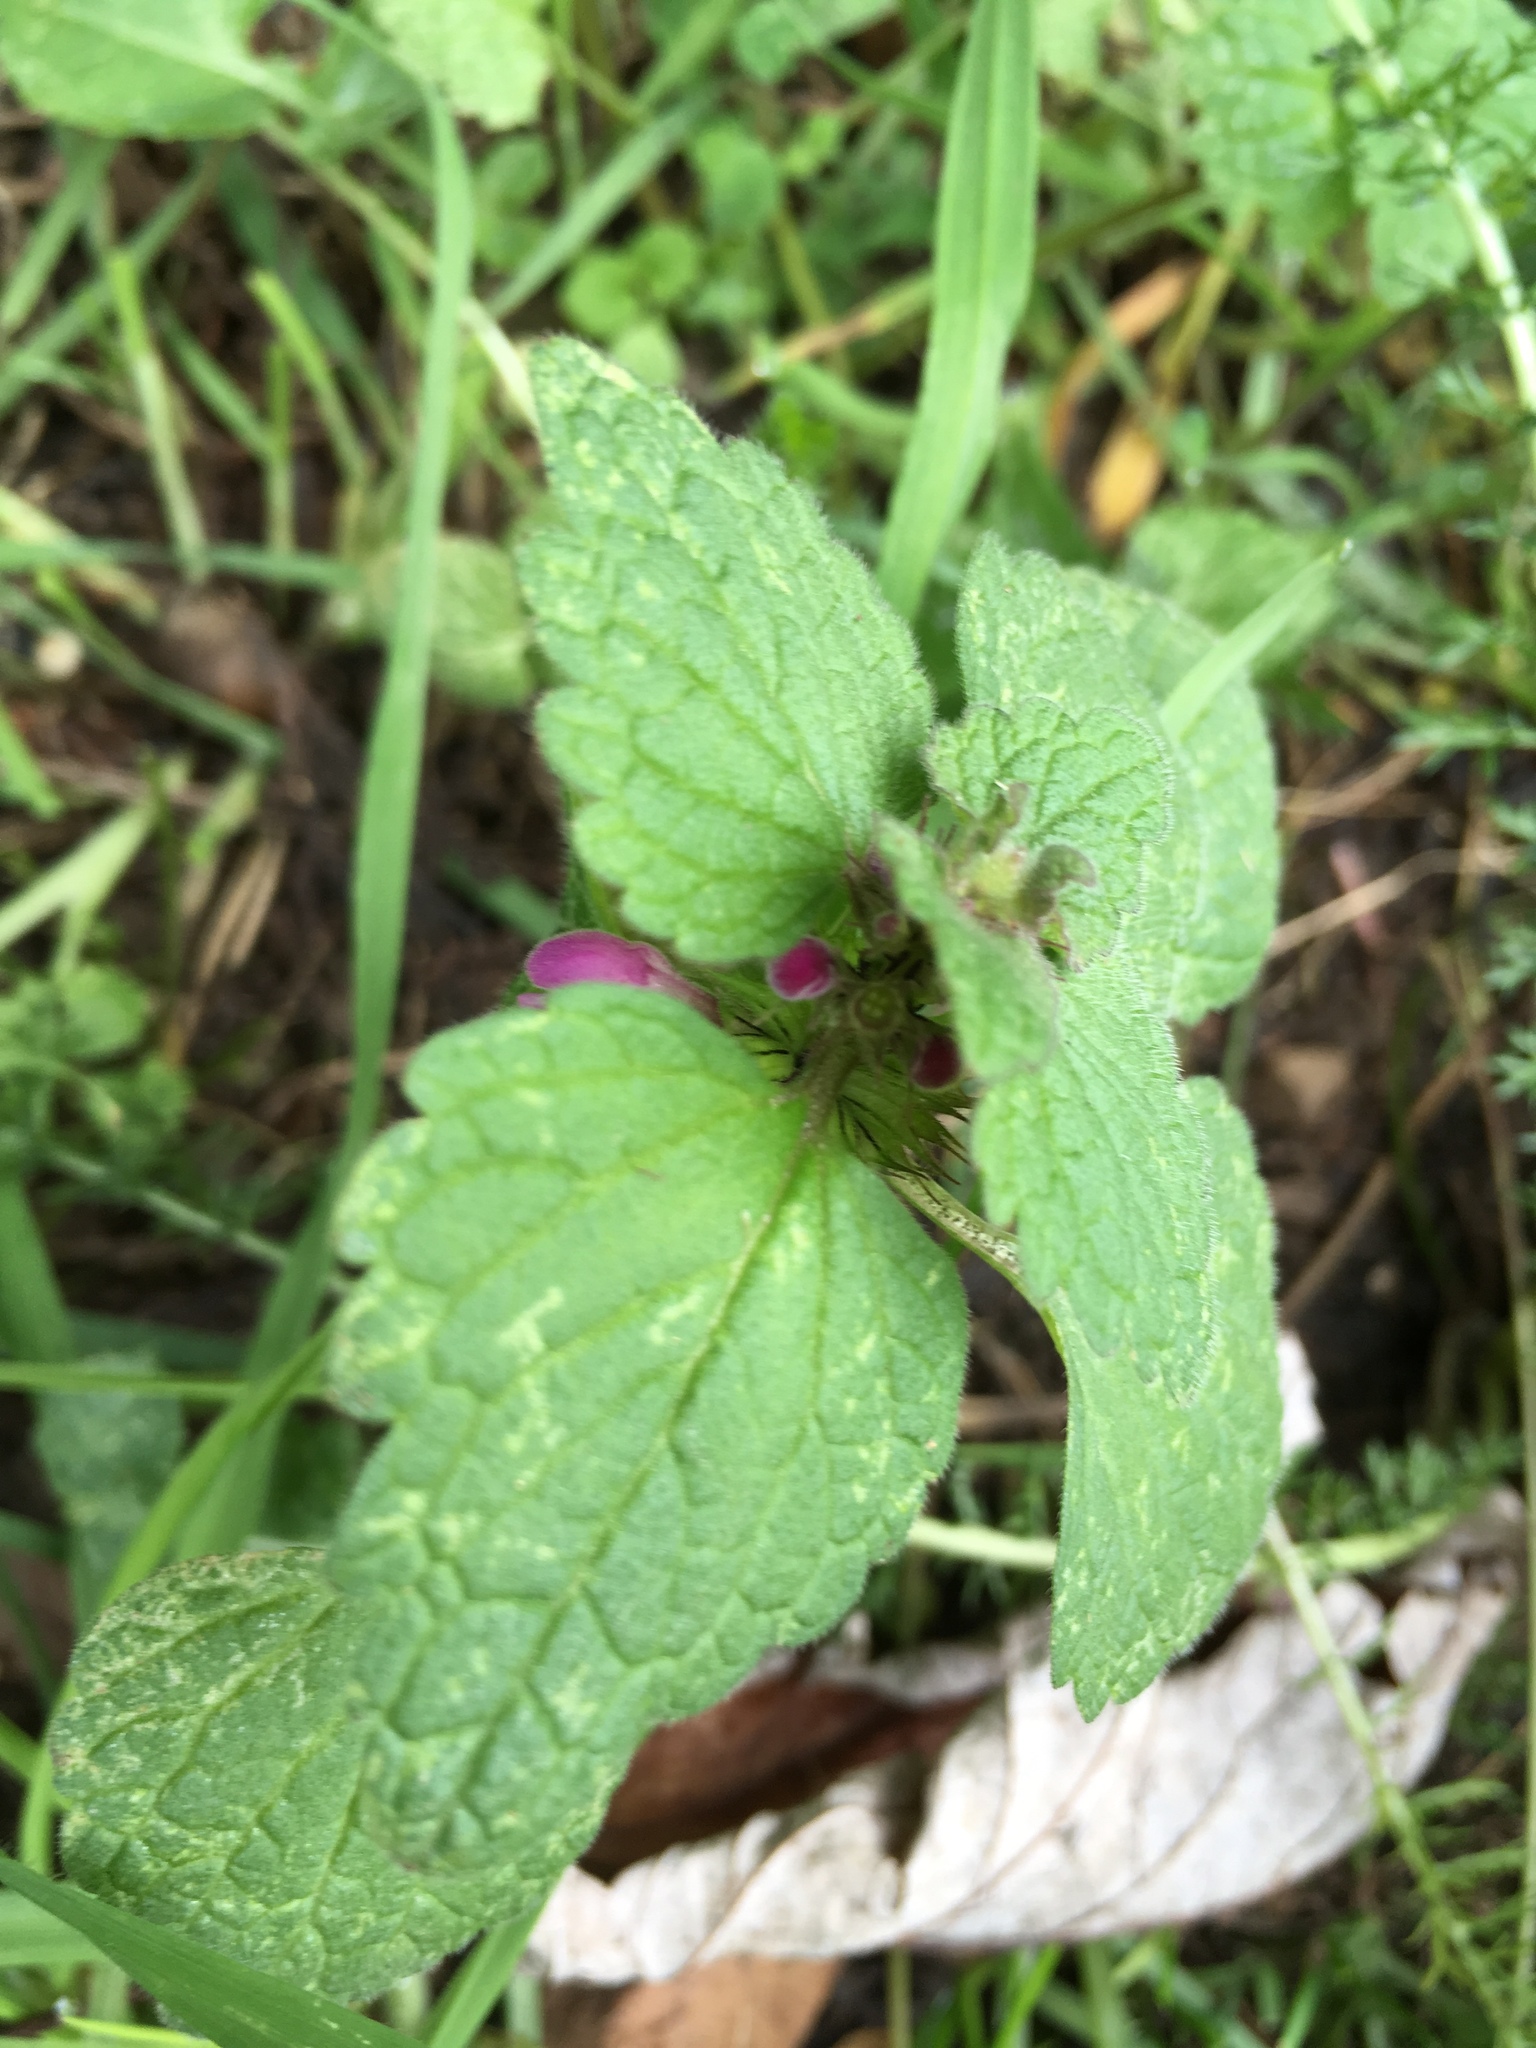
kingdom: Plantae
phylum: Tracheophyta
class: Magnoliopsida
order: Lamiales
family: Lamiaceae
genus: Lamium
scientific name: Lamium purpureum
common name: Red dead-nettle
